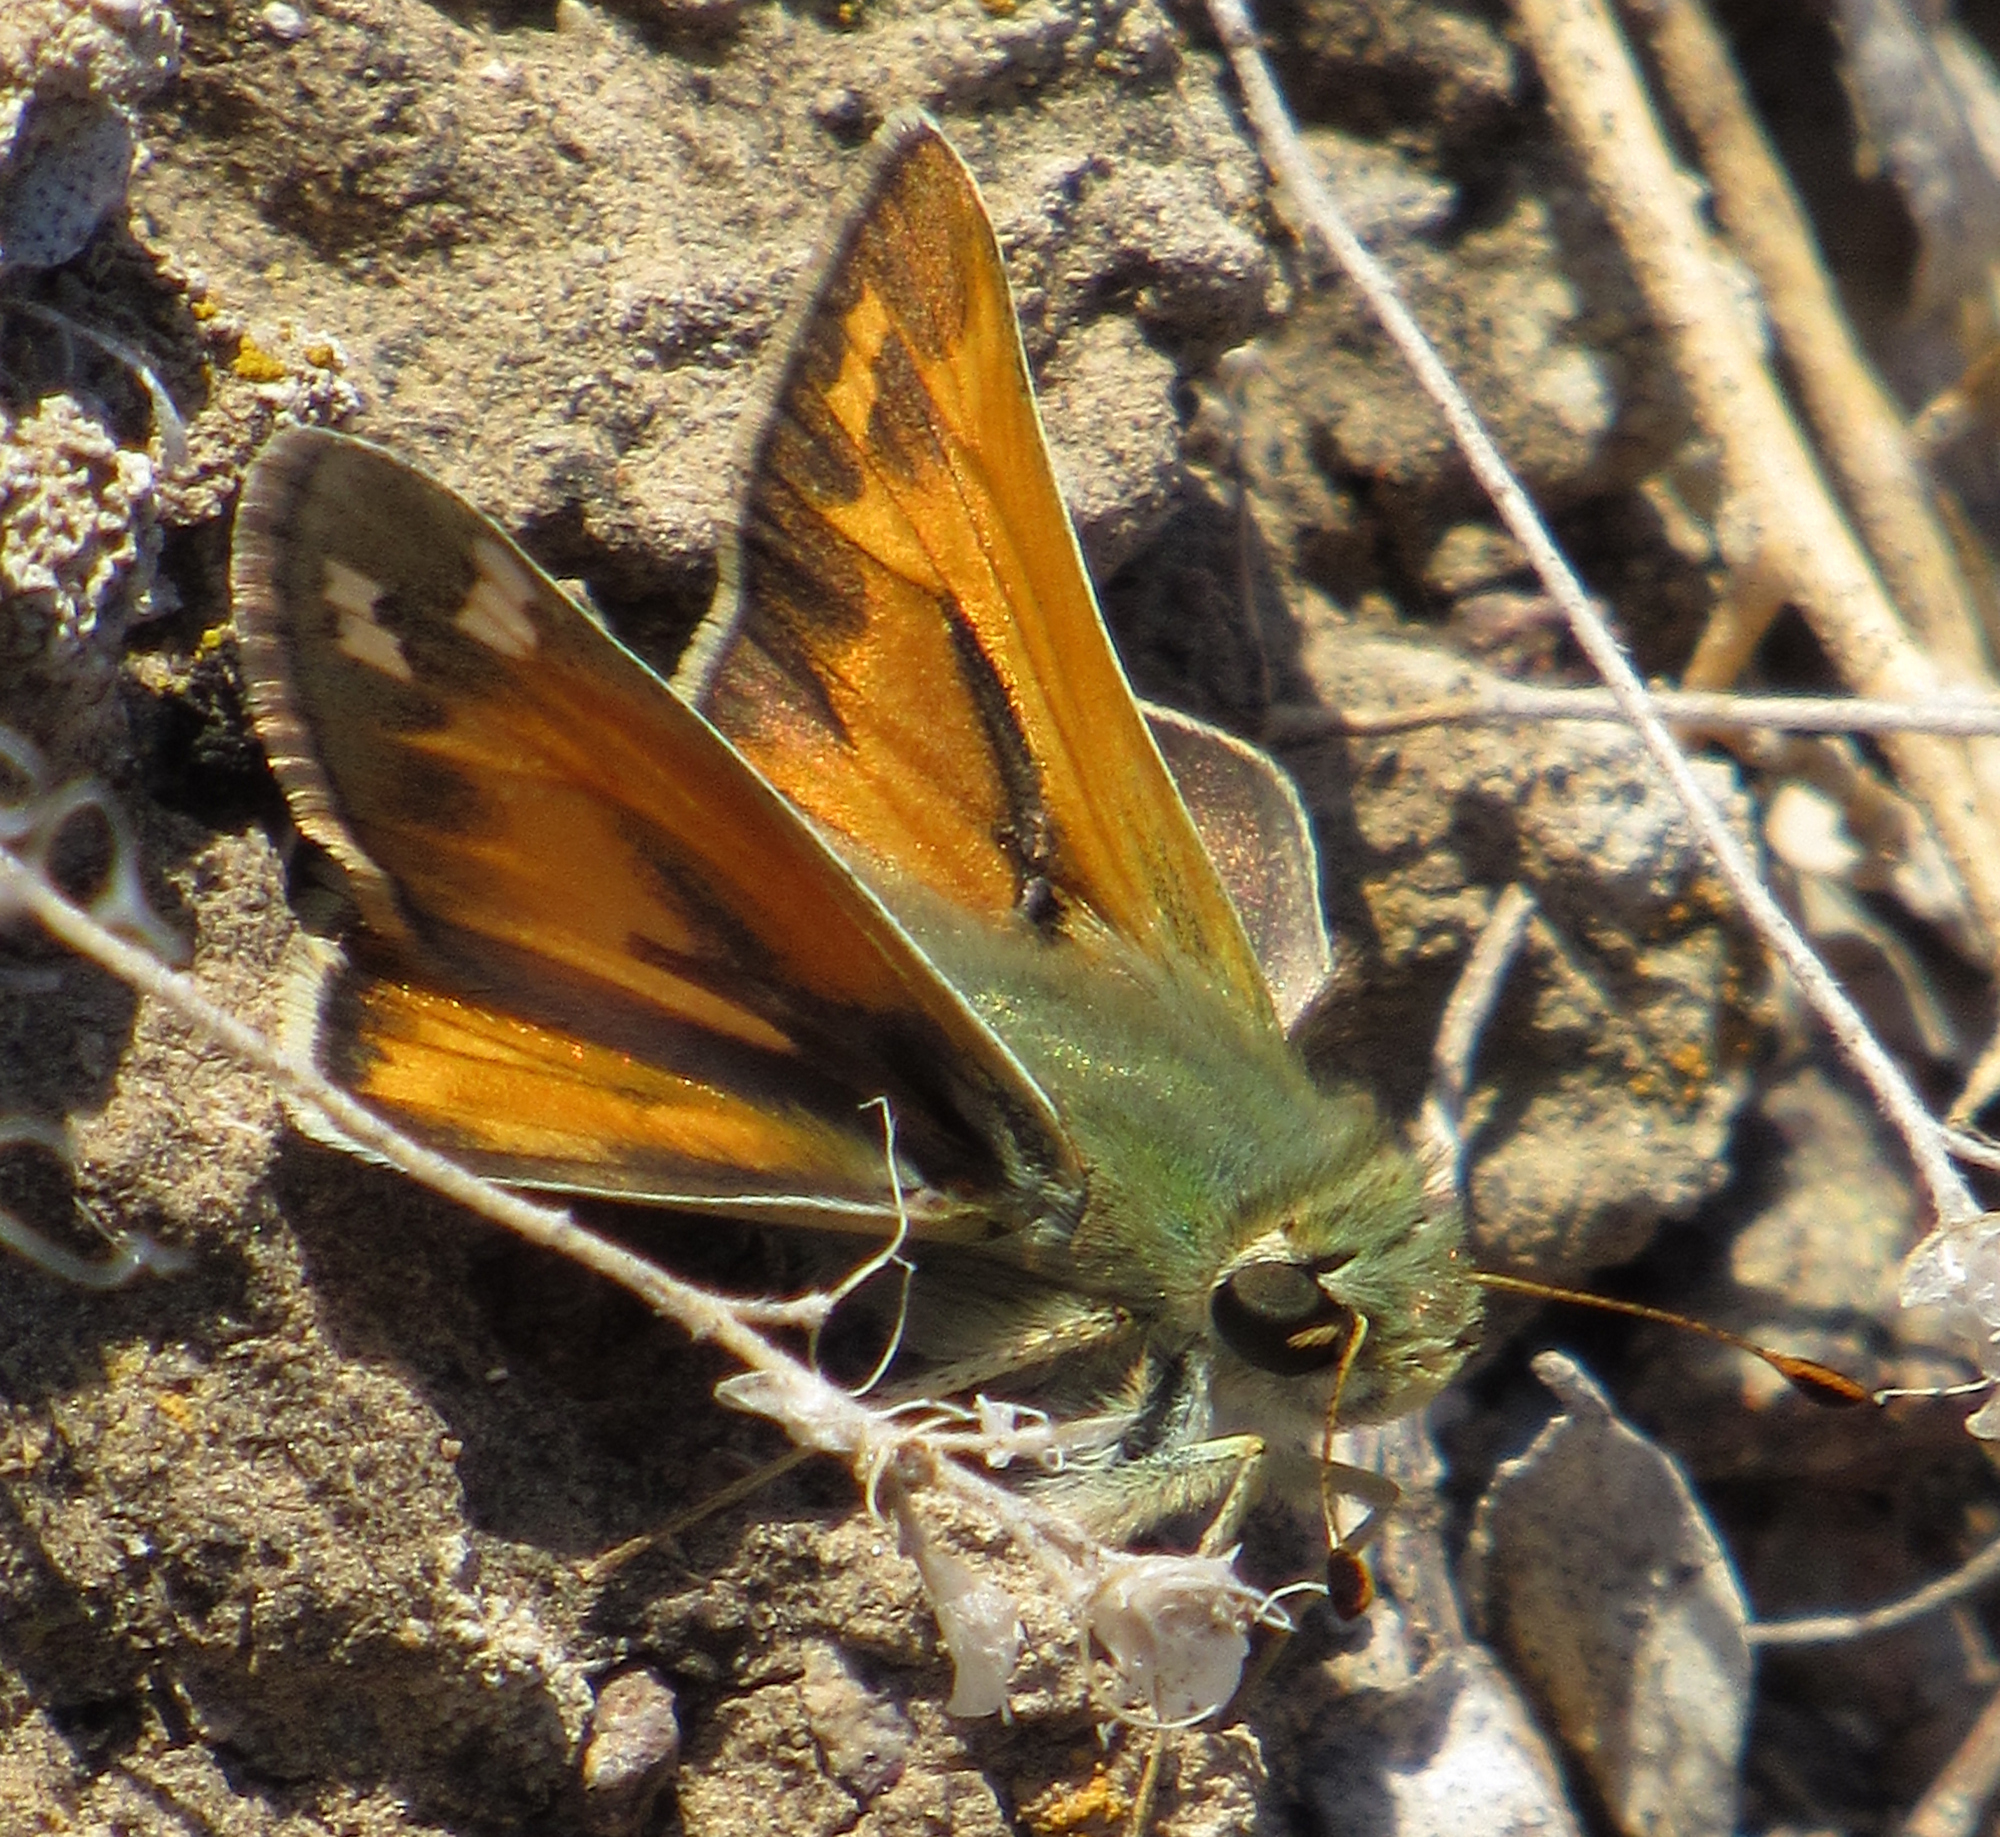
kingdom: Animalia
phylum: Arthropoda
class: Insecta
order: Lepidoptera
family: Hesperiidae
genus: Hesperia
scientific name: Hesperia juba
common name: Juba skipper
